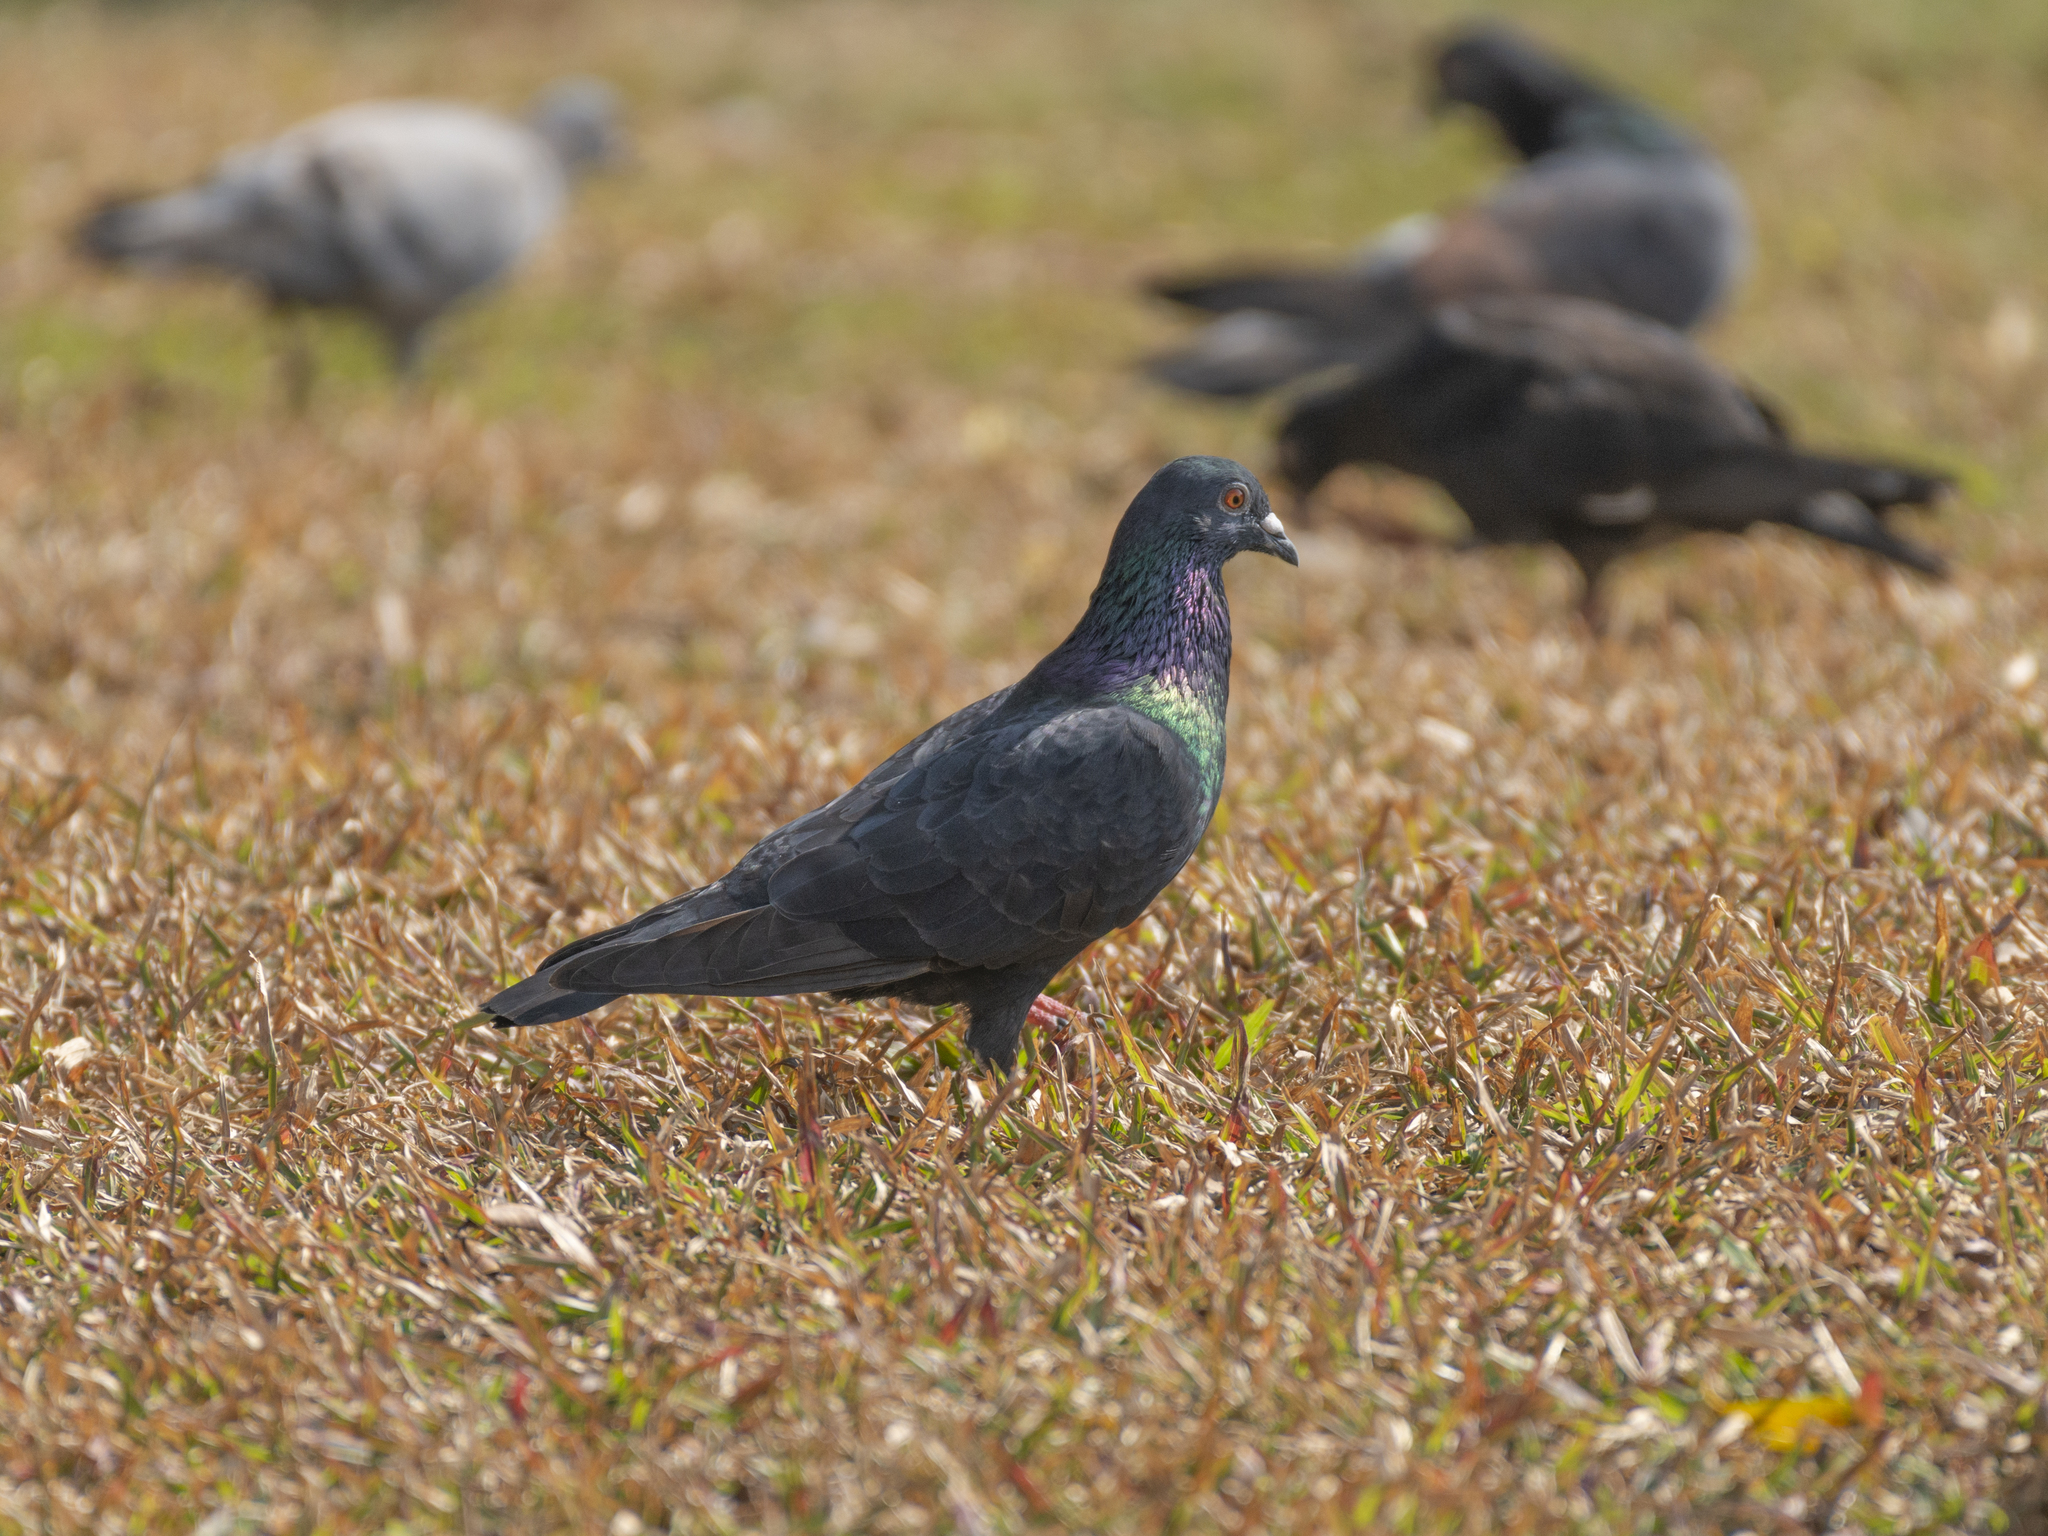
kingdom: Animalia
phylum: Chordata
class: Aves
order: Columbiformes
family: Columbidae
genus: Columba
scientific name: Columba livia
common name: Rock pigeon
